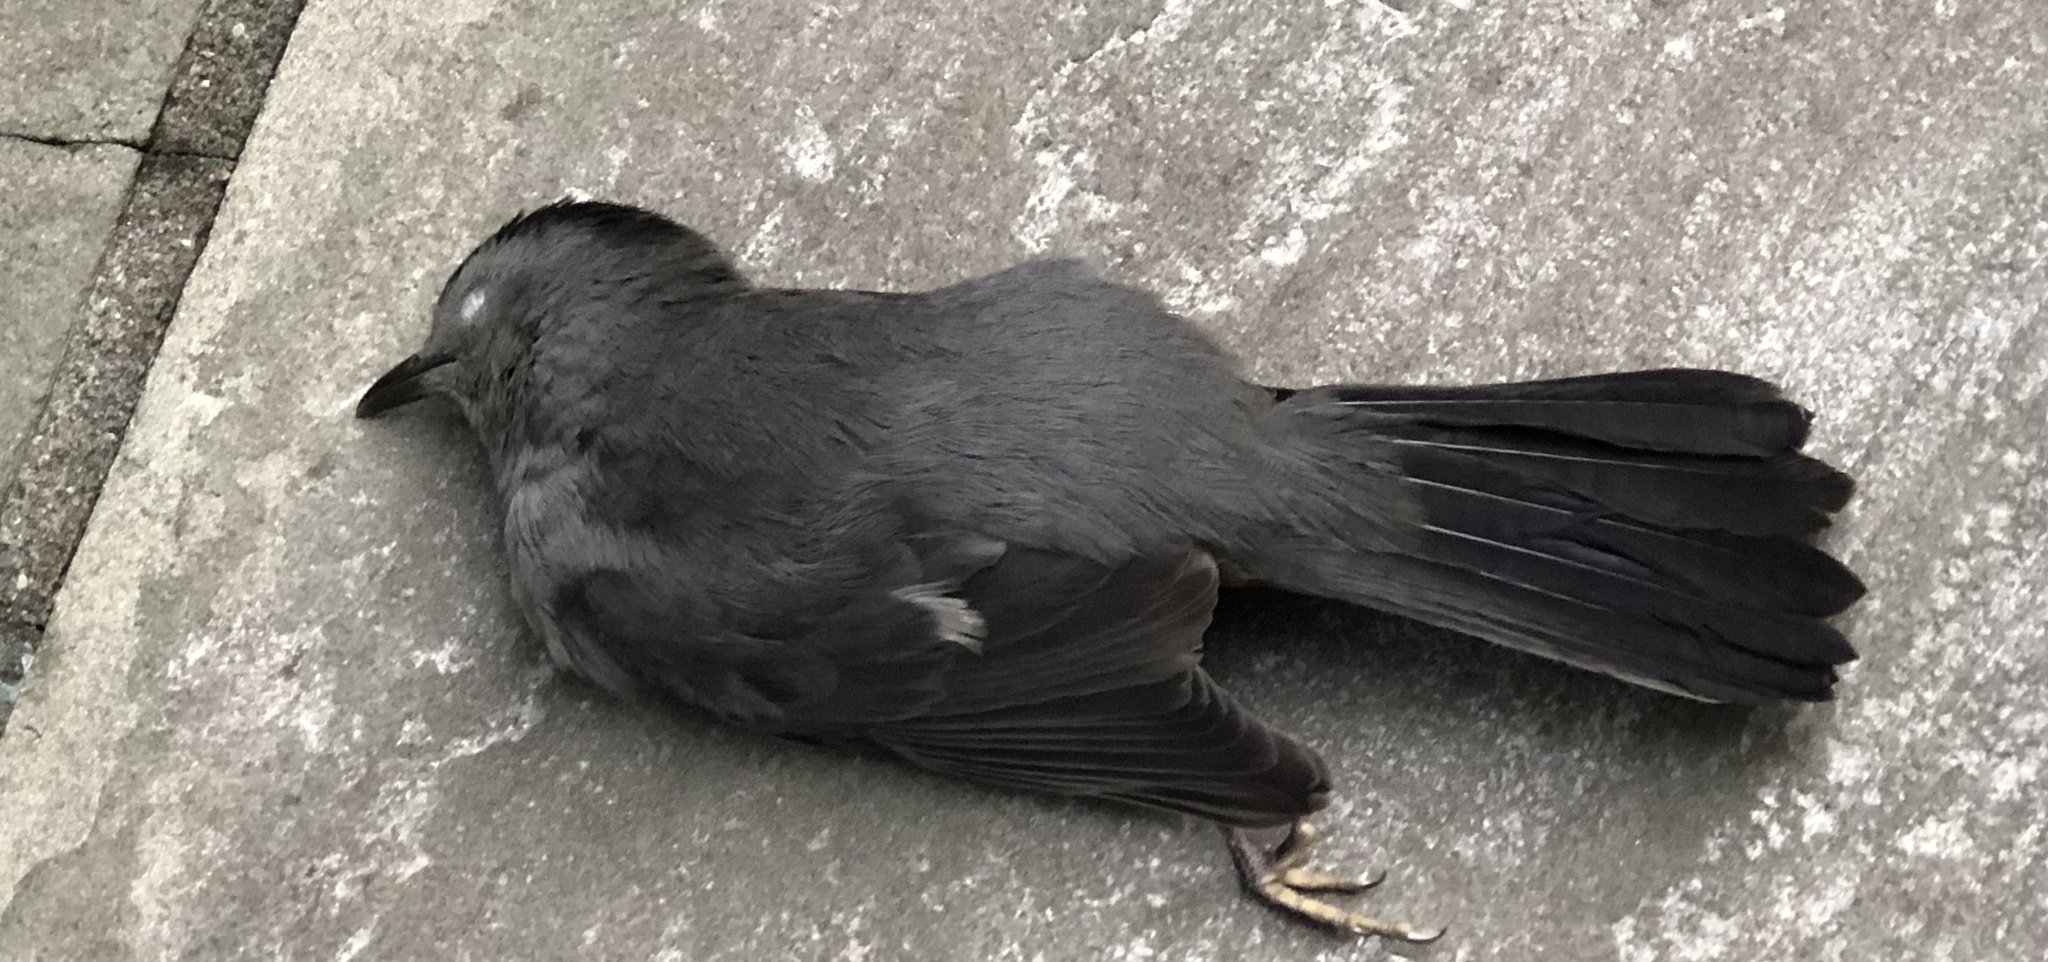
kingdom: Animalia
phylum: Chordata
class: Aves
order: Passeriformes
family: Mimidae
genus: Dumetella
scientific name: Dumetella carolinensis
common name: Gray catbird
